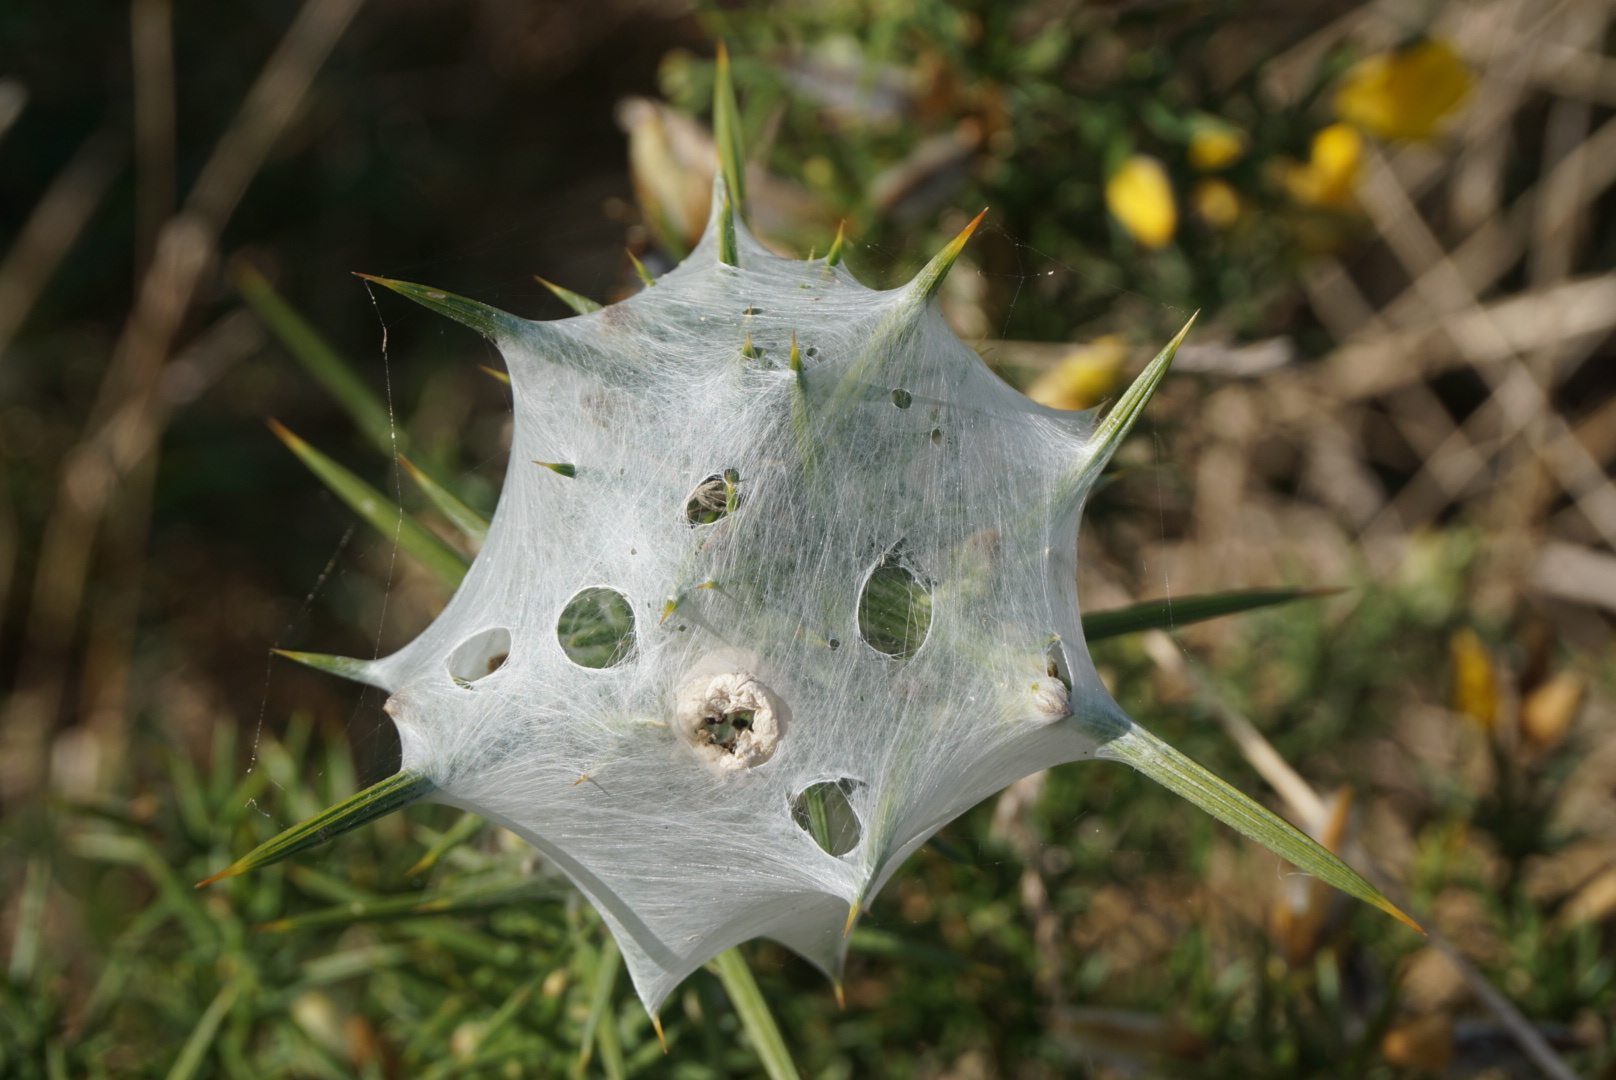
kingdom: Animalia
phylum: Arthropoda
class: Arachnida
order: Araneae
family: Pisauridae
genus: Dolomedes
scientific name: Dolomedes minor
